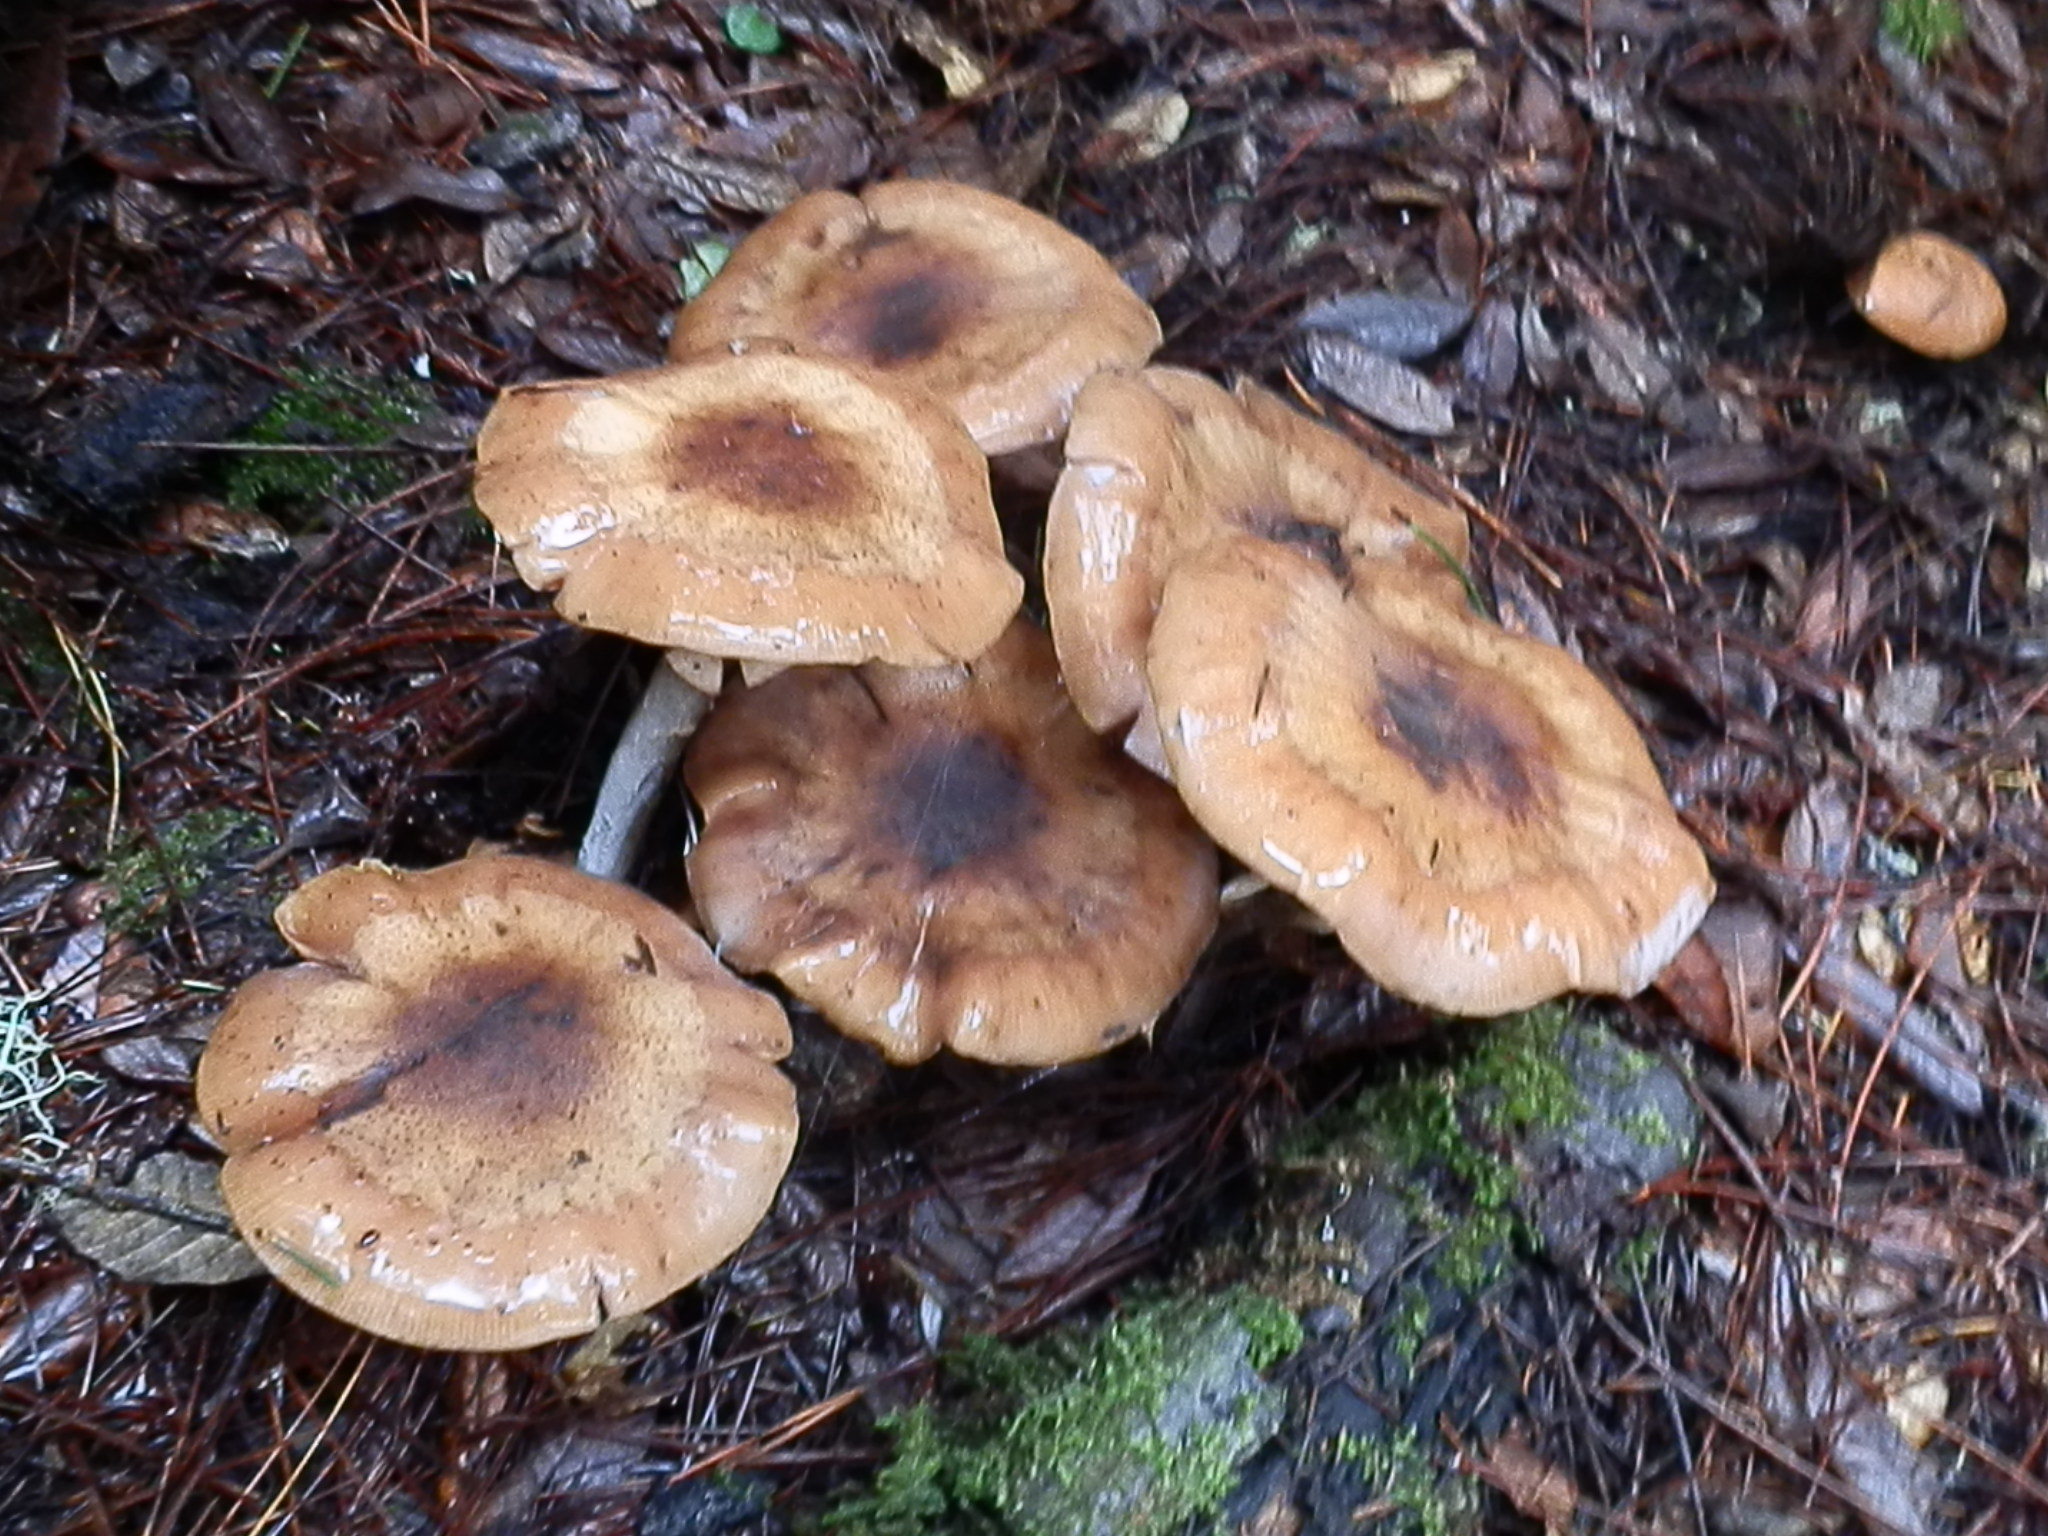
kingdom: Fungi
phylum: Basidiomycota
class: Agaricomycetes
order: Agaricales
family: Physalacriaceae
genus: Armillaria
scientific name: Armillaria mellea
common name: Honey fungus
